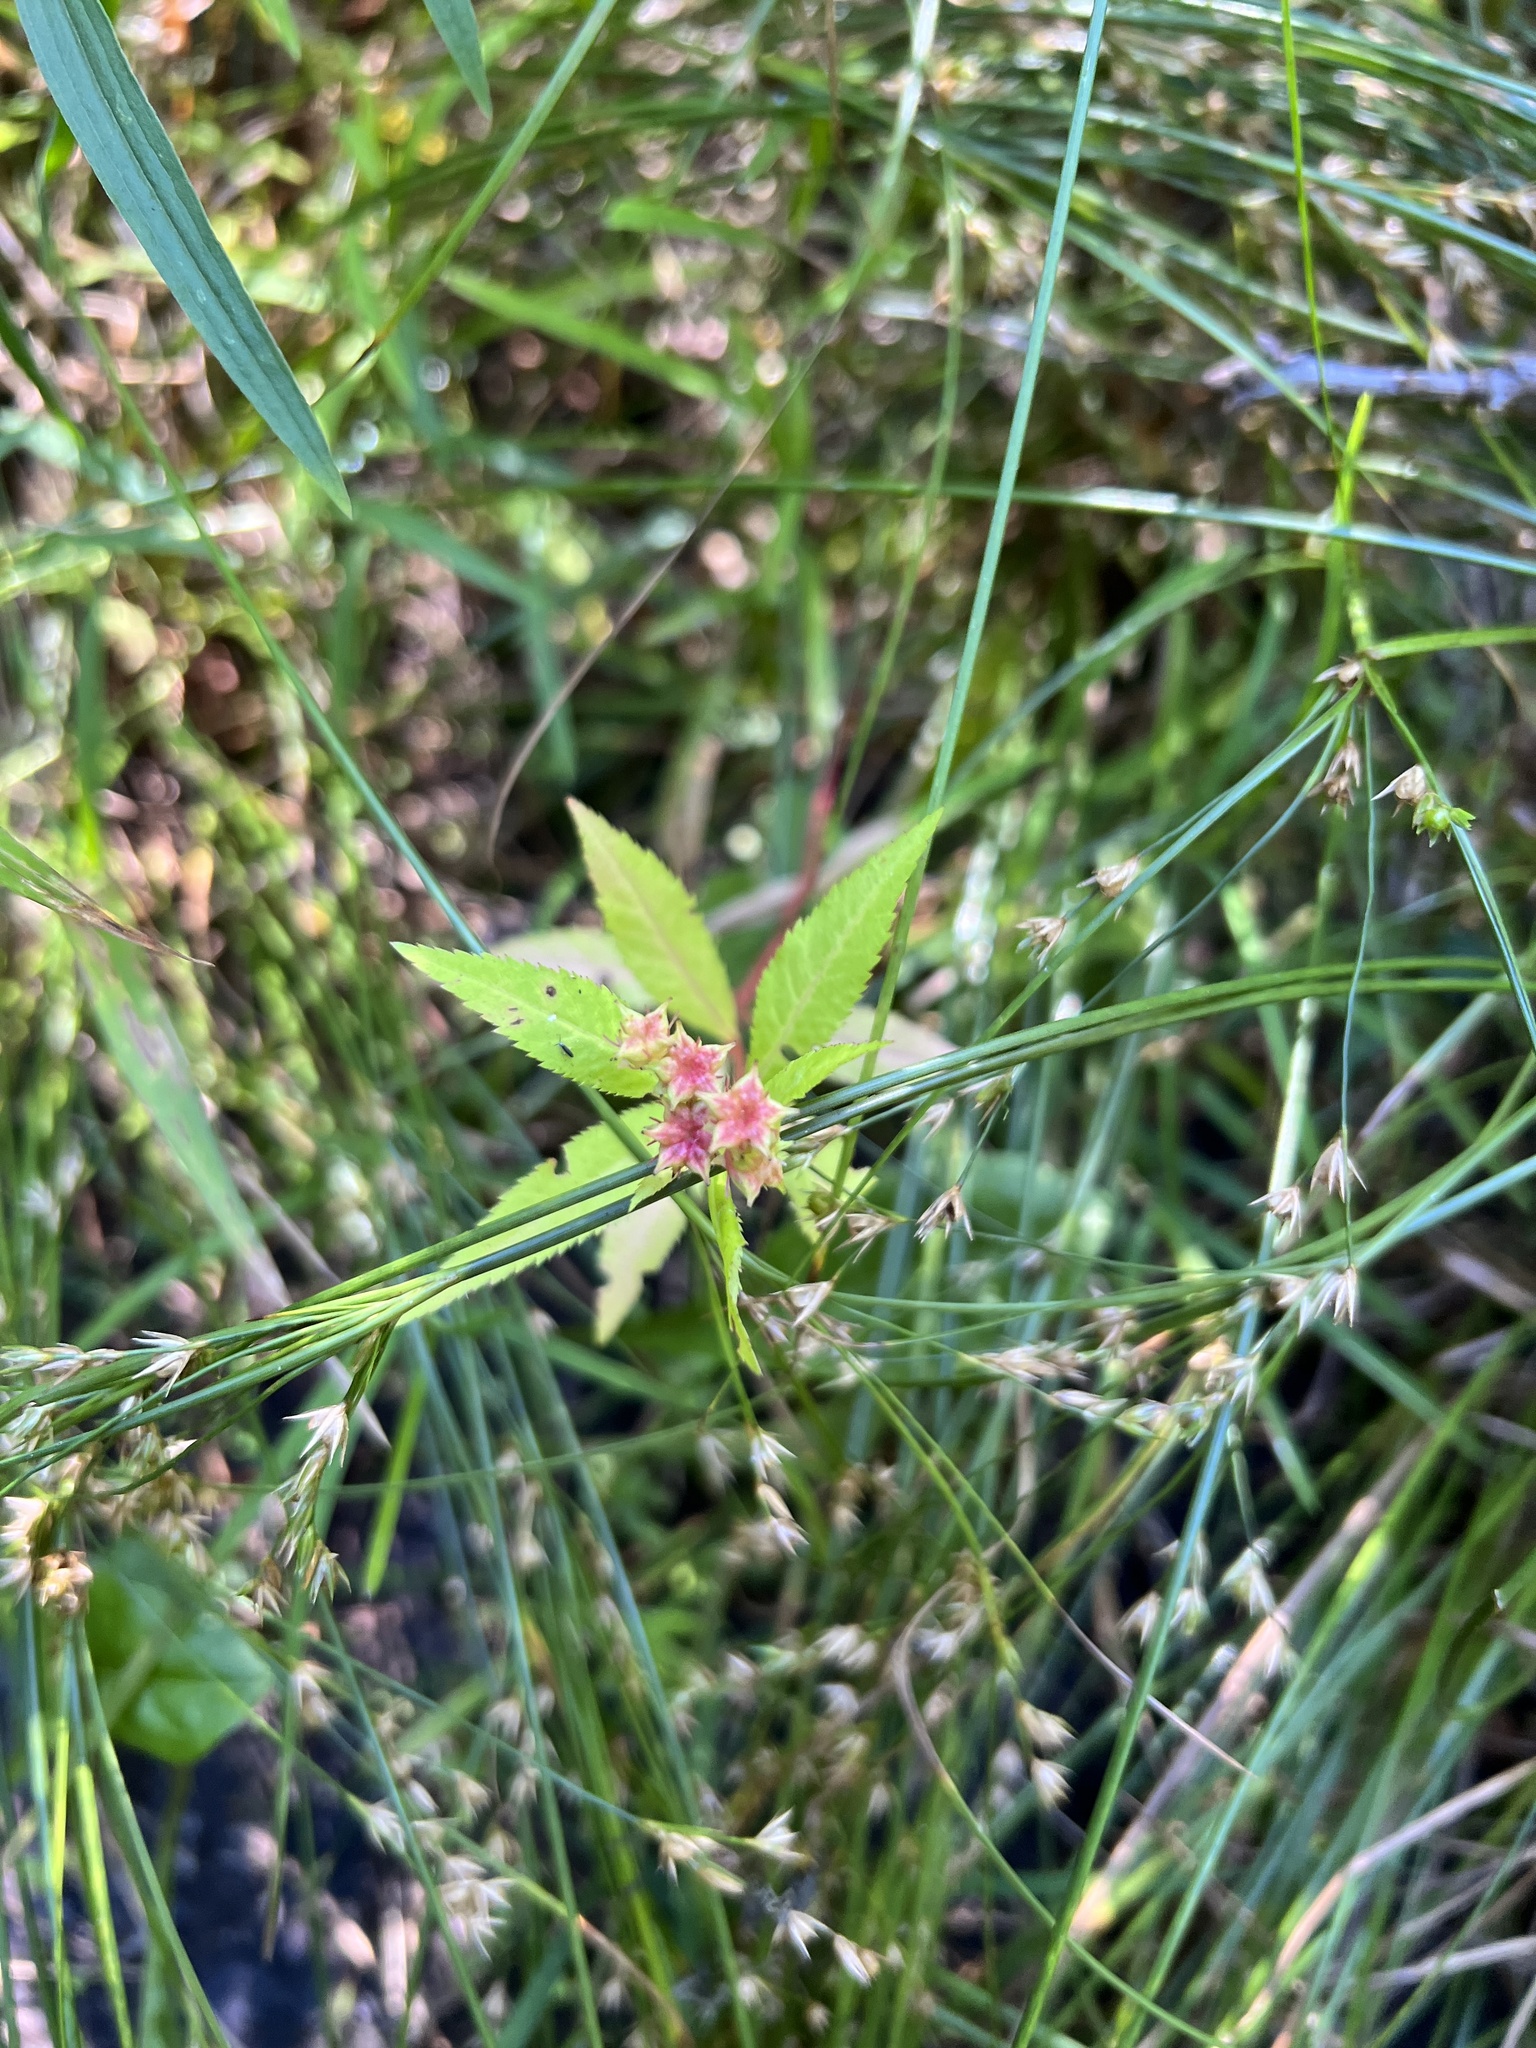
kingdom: Plantae
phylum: Tracheophyta
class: Magnoliopsida
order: Saxifragales
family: Penthoraceae
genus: Penthorum
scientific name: Penthorum sedoides
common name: Ditch stonecrop
